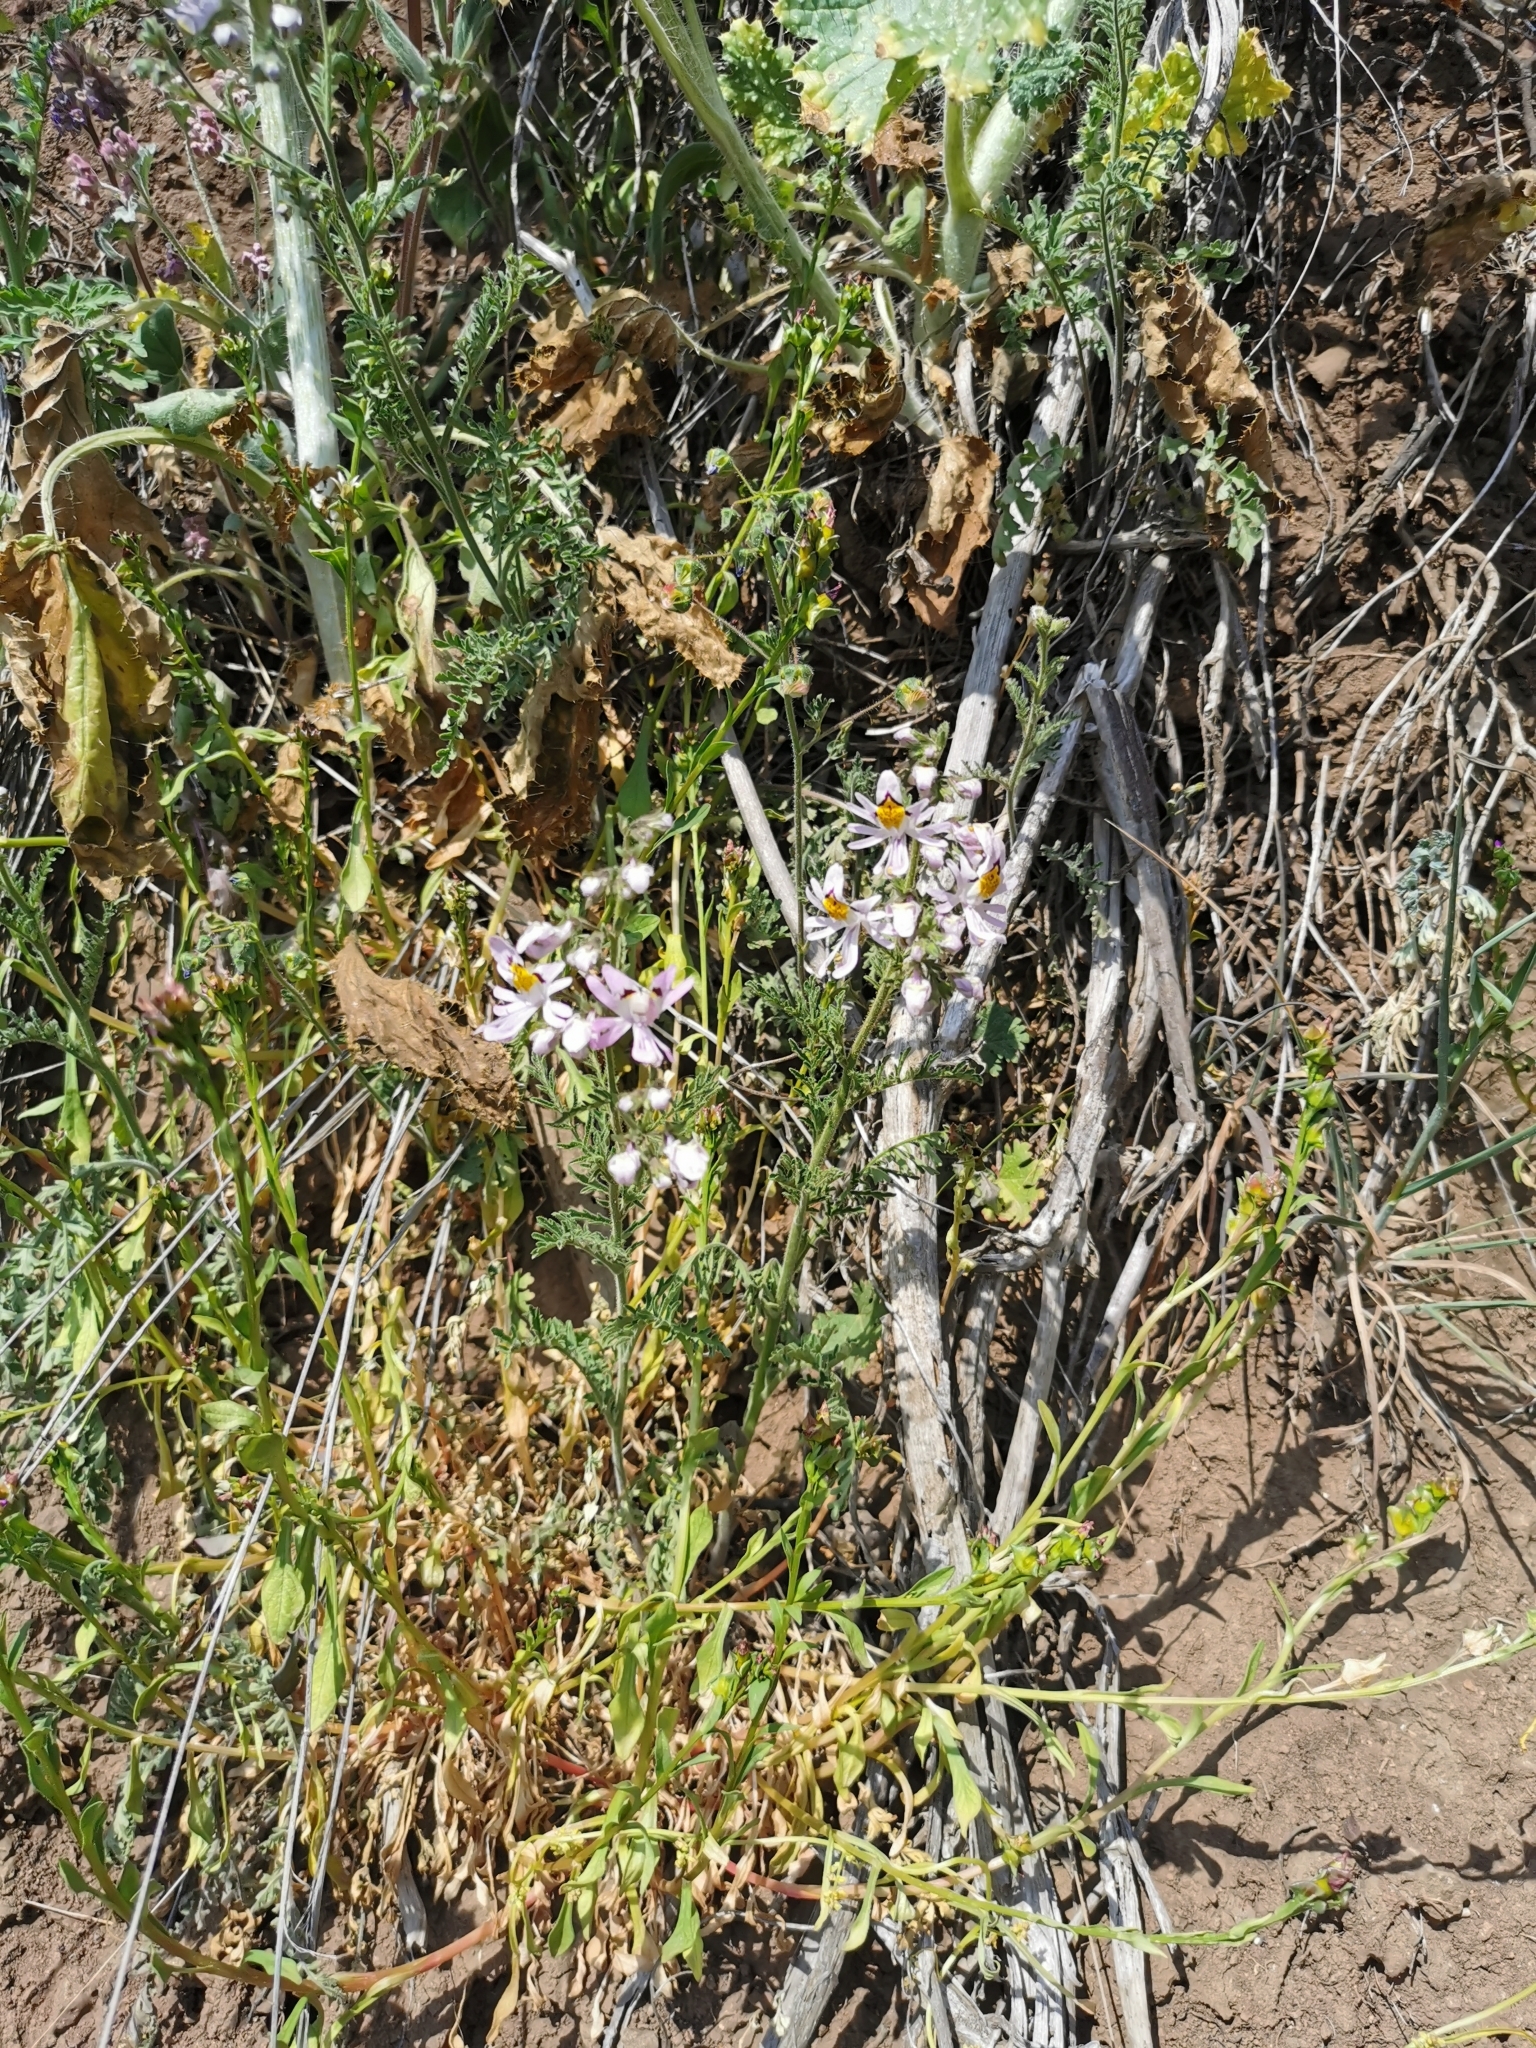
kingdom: Plantae
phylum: Tracheophyta
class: Magnoliopsida
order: Solanales
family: Solanaceae
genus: Schizanthus
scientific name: Schizanthus pinnatus
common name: Poor-man's-orchid
